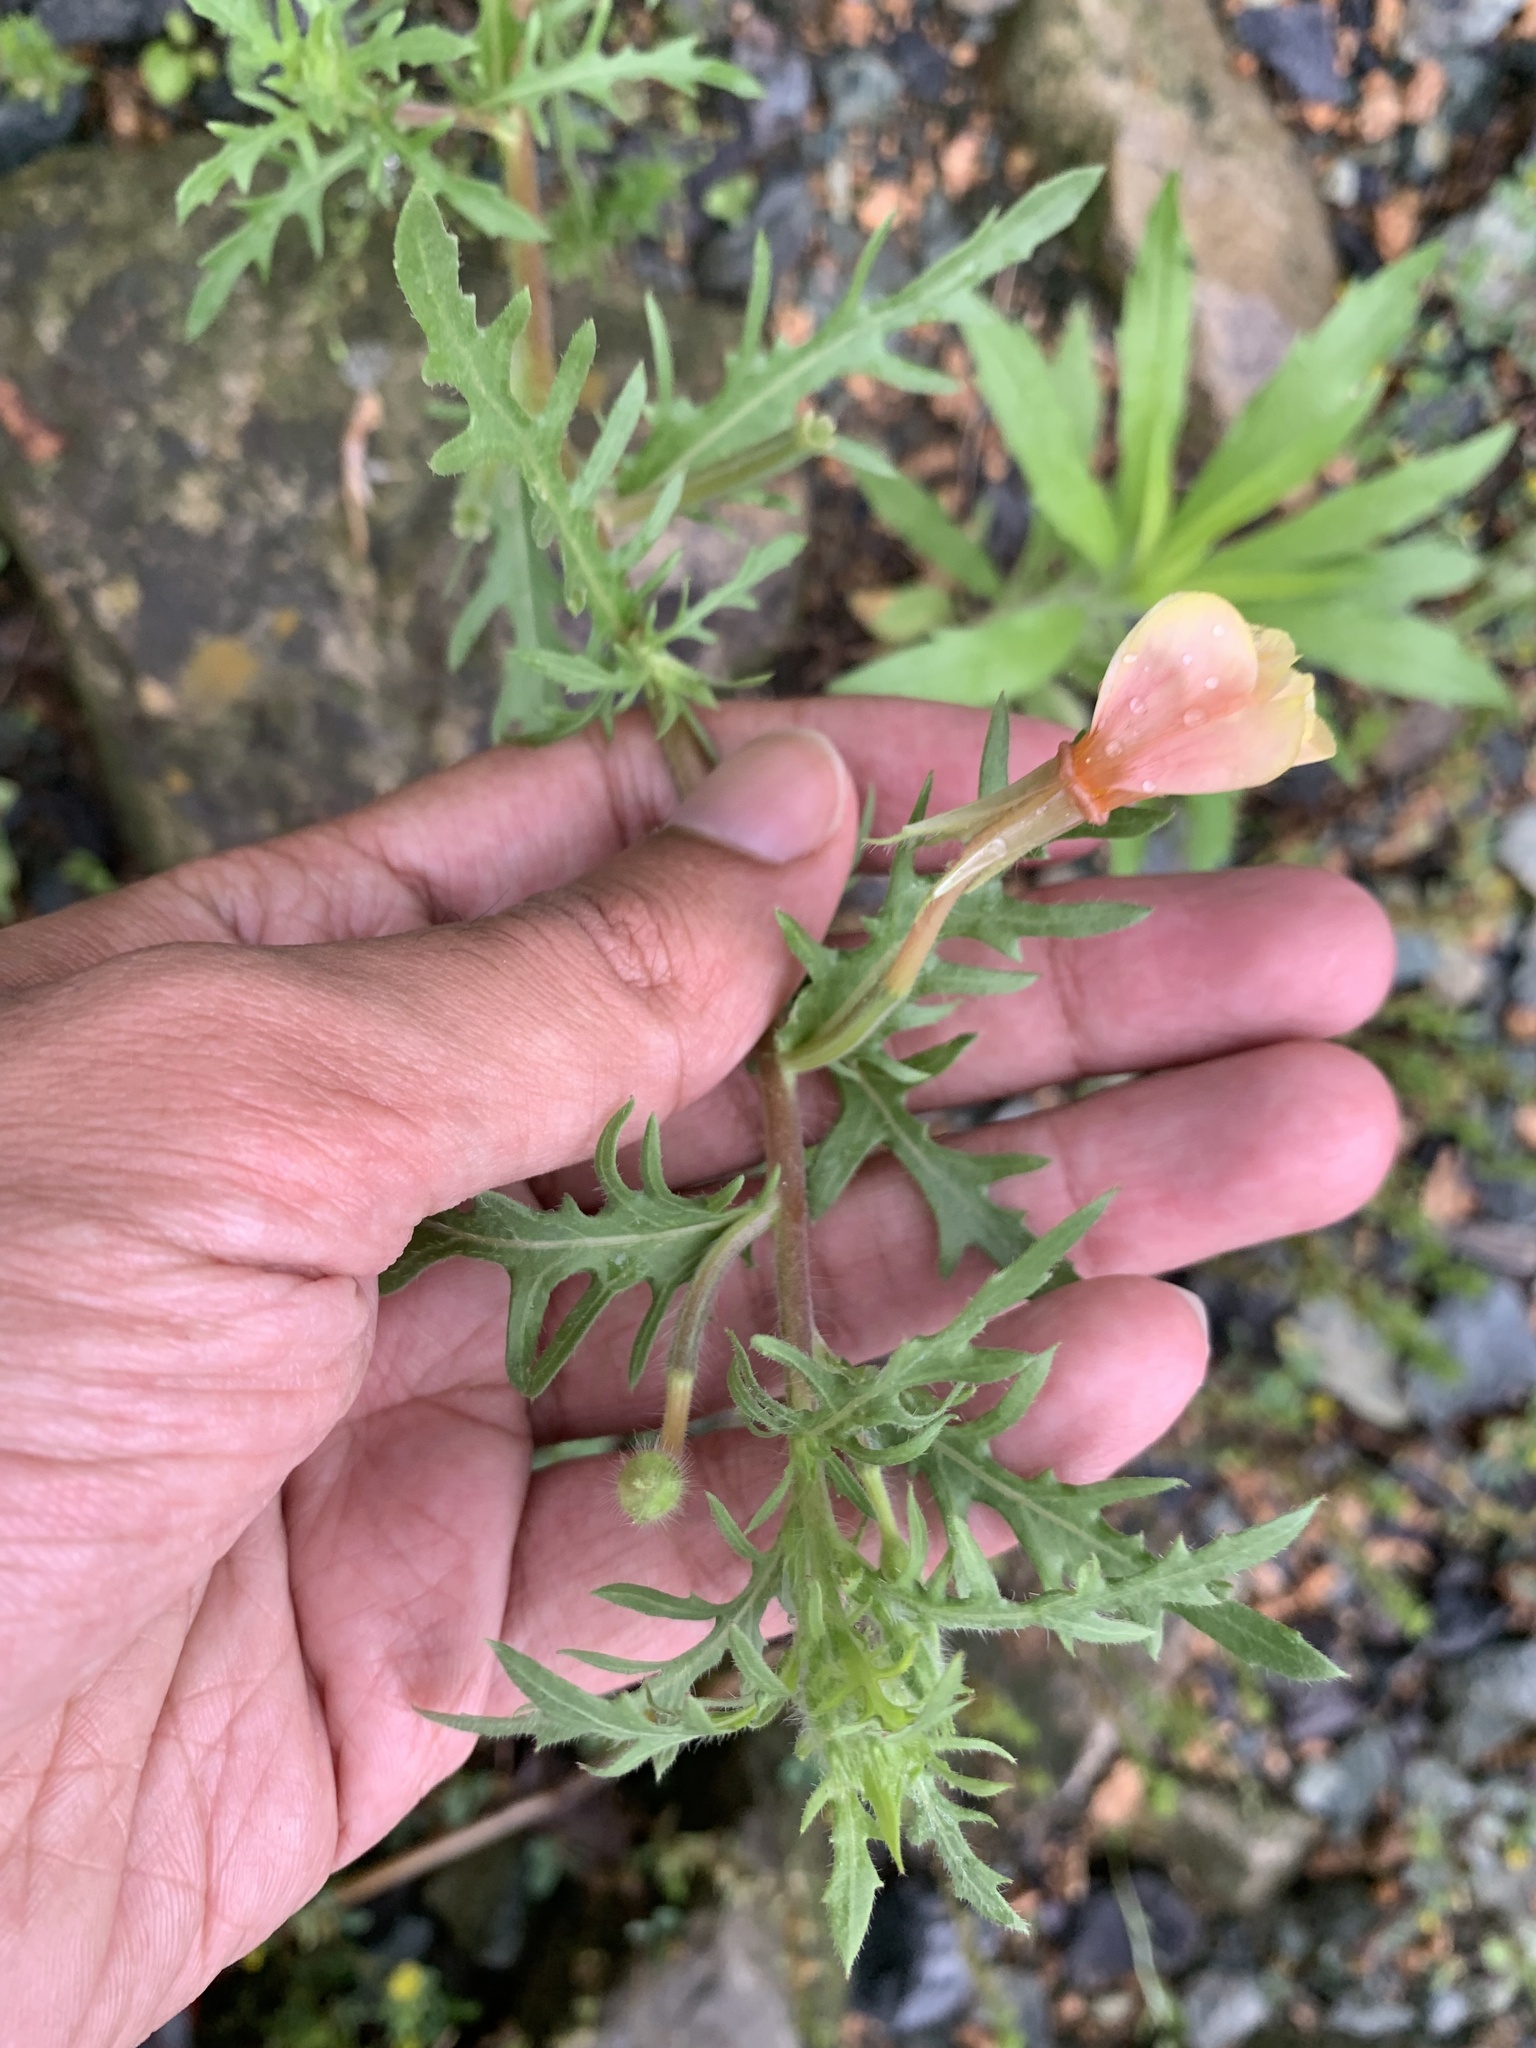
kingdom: Plantae
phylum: Tracheophyta
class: Magnoliopsida
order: Myrtales
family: Onagraceae
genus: Oenothera
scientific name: Oenothera laciniata
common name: Cut-leaved evening-primrose
